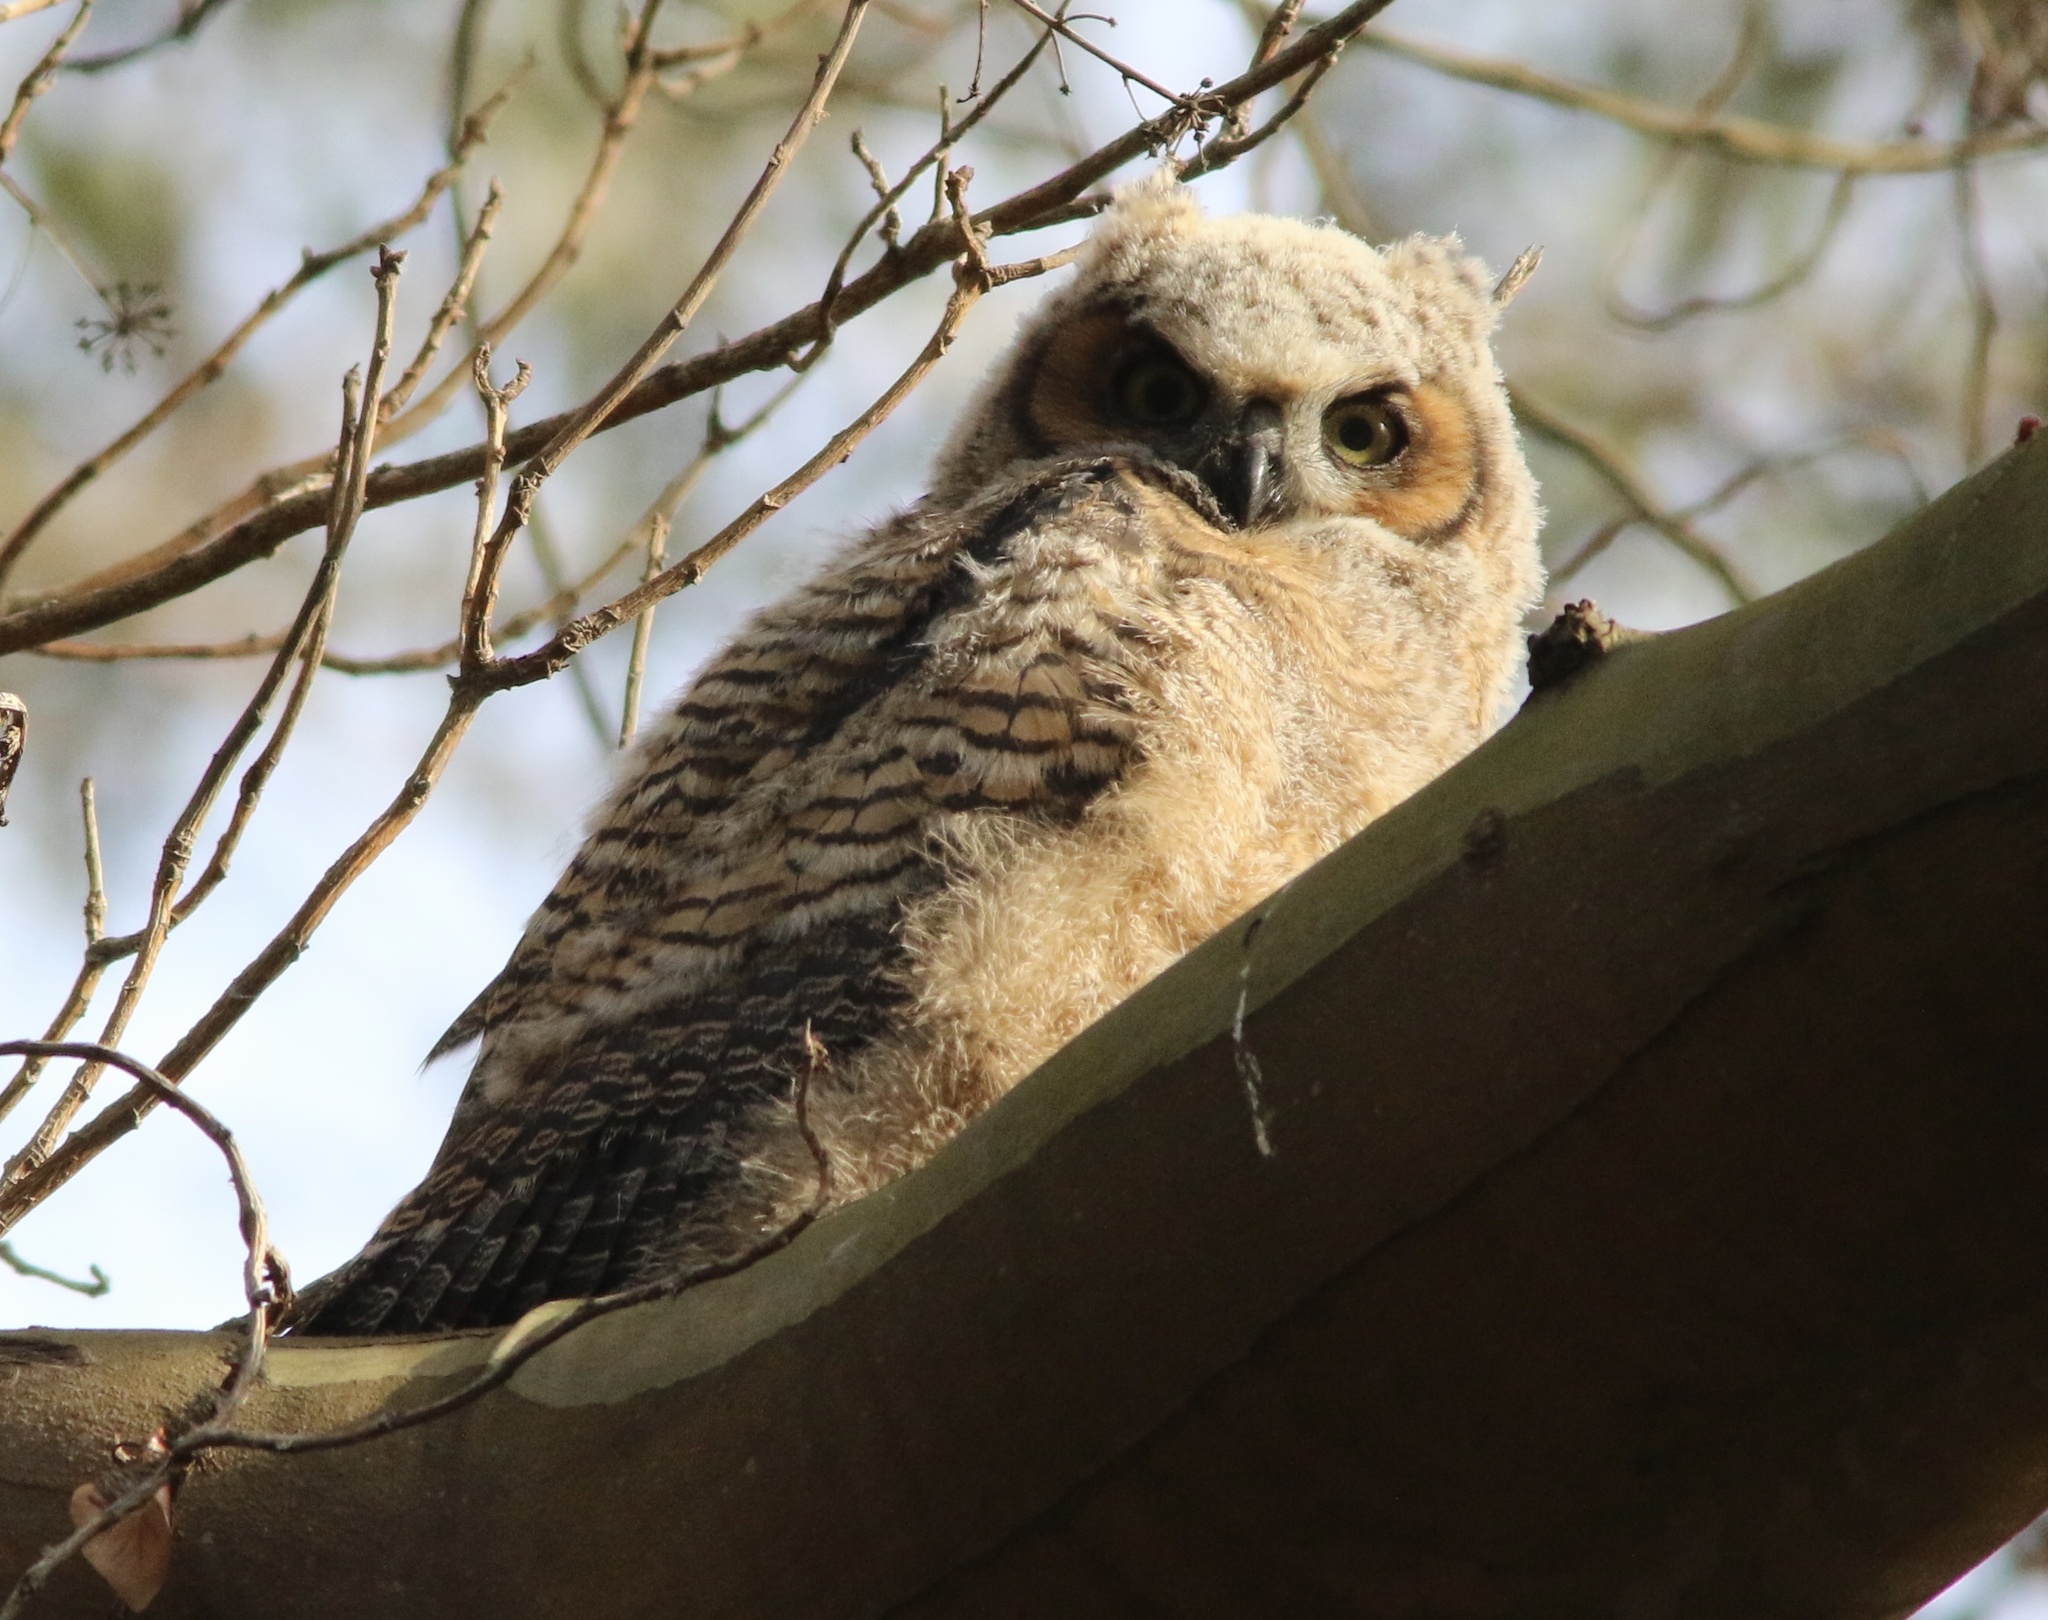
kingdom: Animalia
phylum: Chordata
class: Aves
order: Strigiformes
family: Strigidae
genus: Bubo
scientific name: Bubo virginianus
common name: Great horned owl
